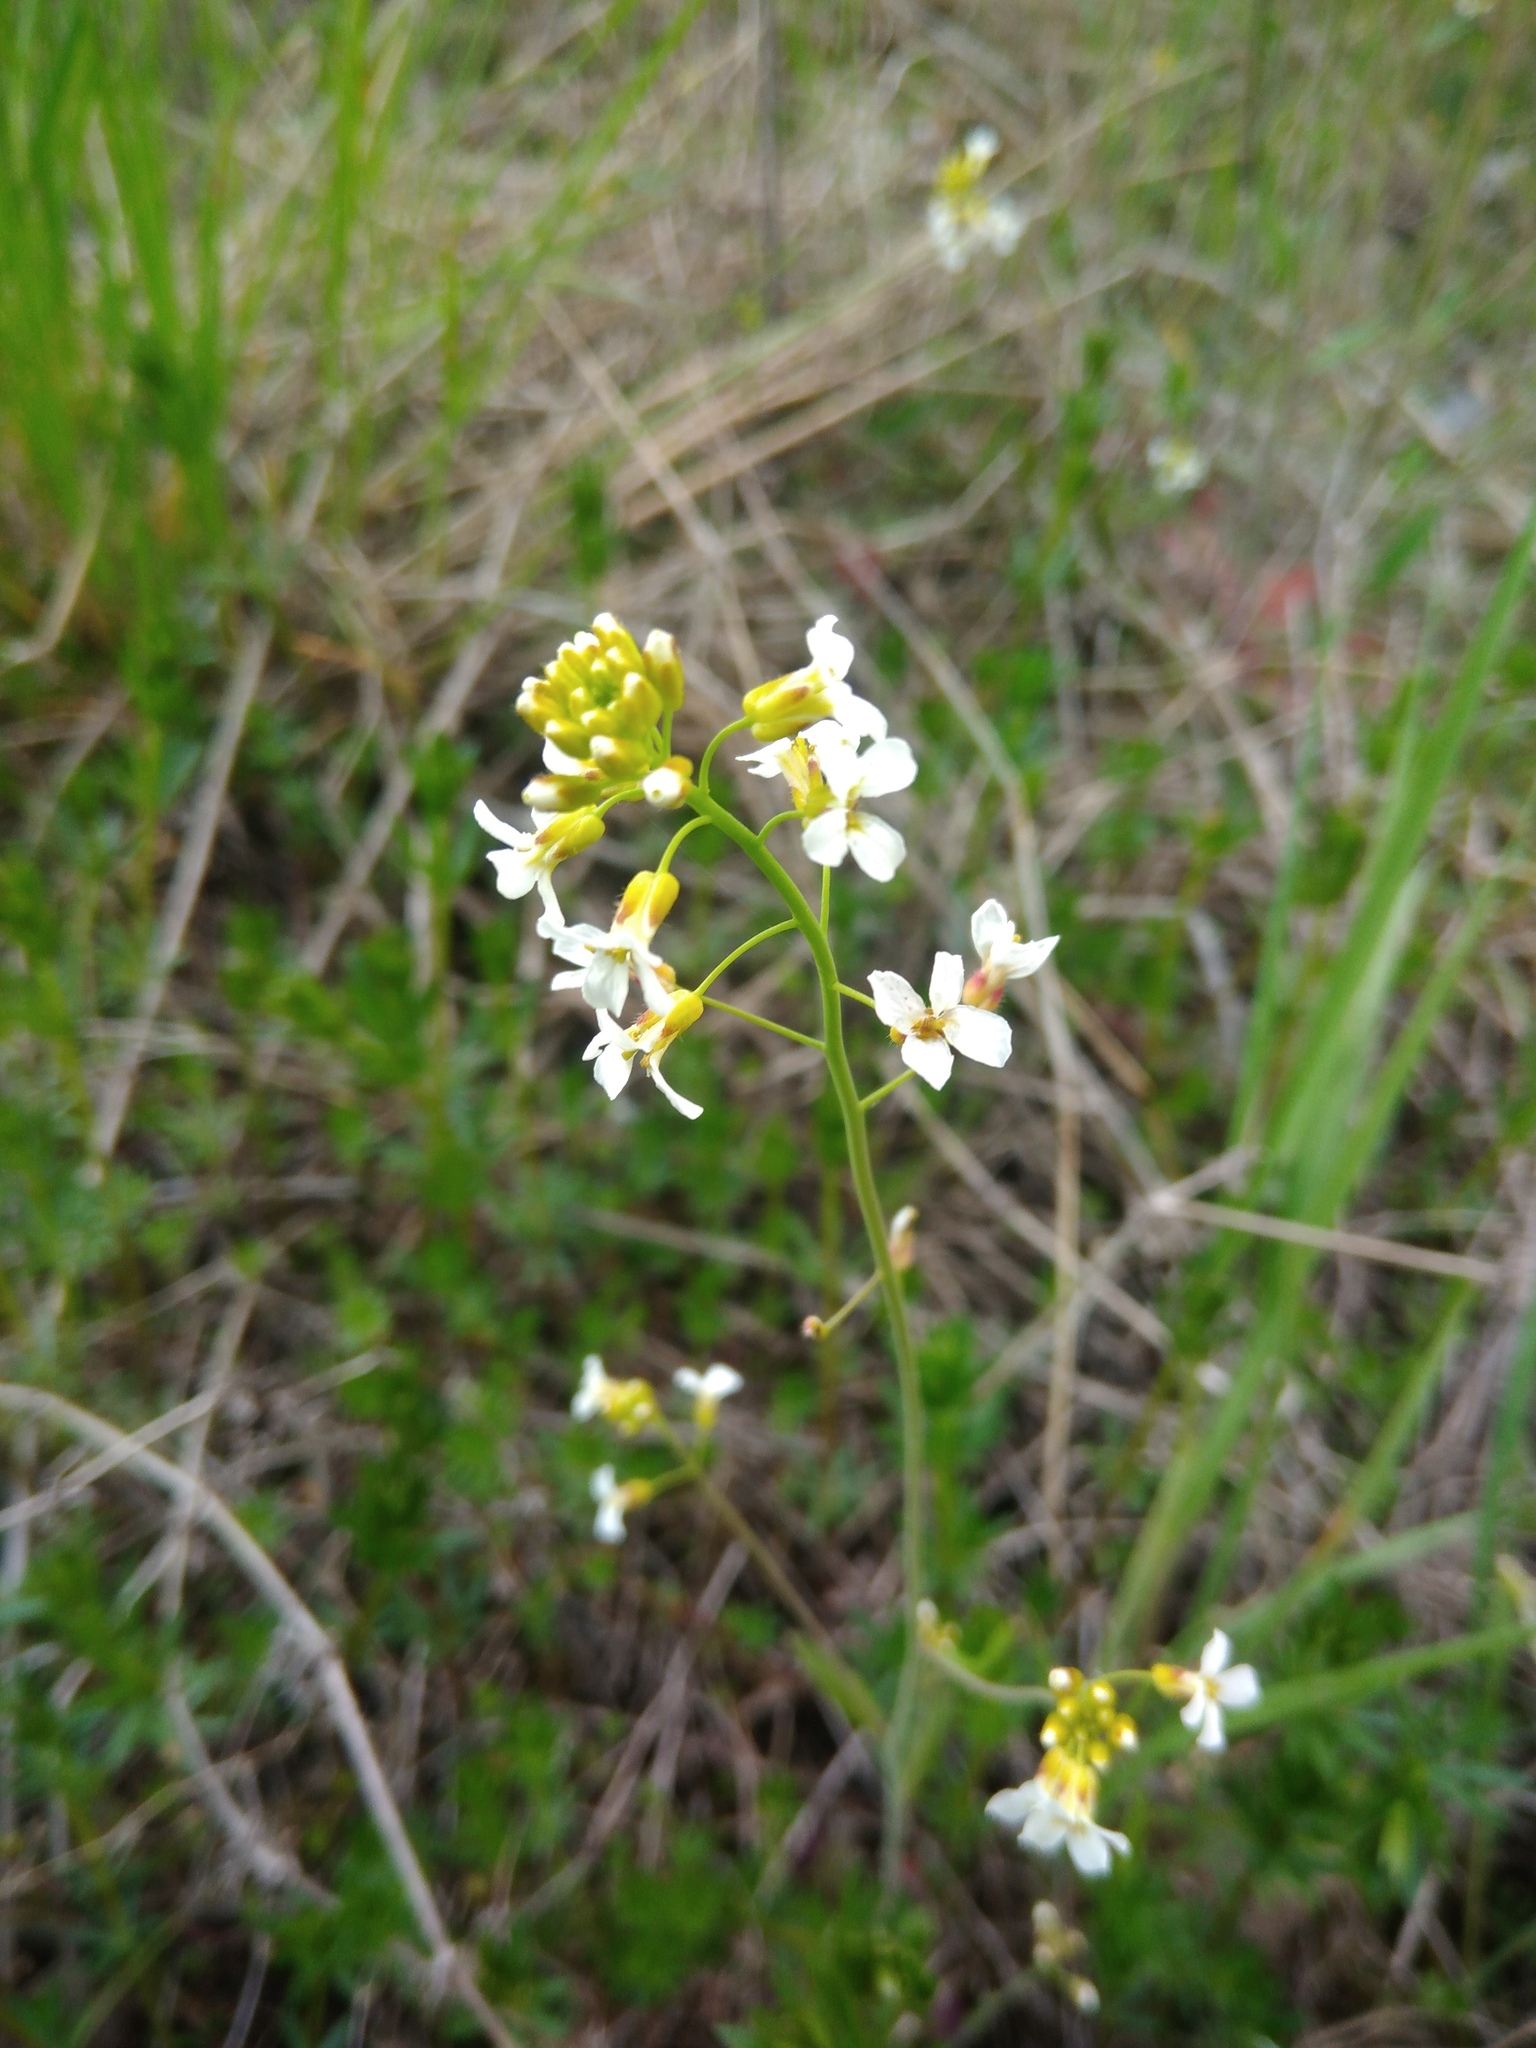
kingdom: Plantae
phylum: Tracheophyta
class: Magnoliopsida
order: Brassicales
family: Brassicaceae
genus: Arabidopsis
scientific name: Arabidopsis arenosa
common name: Sand rock-cress
